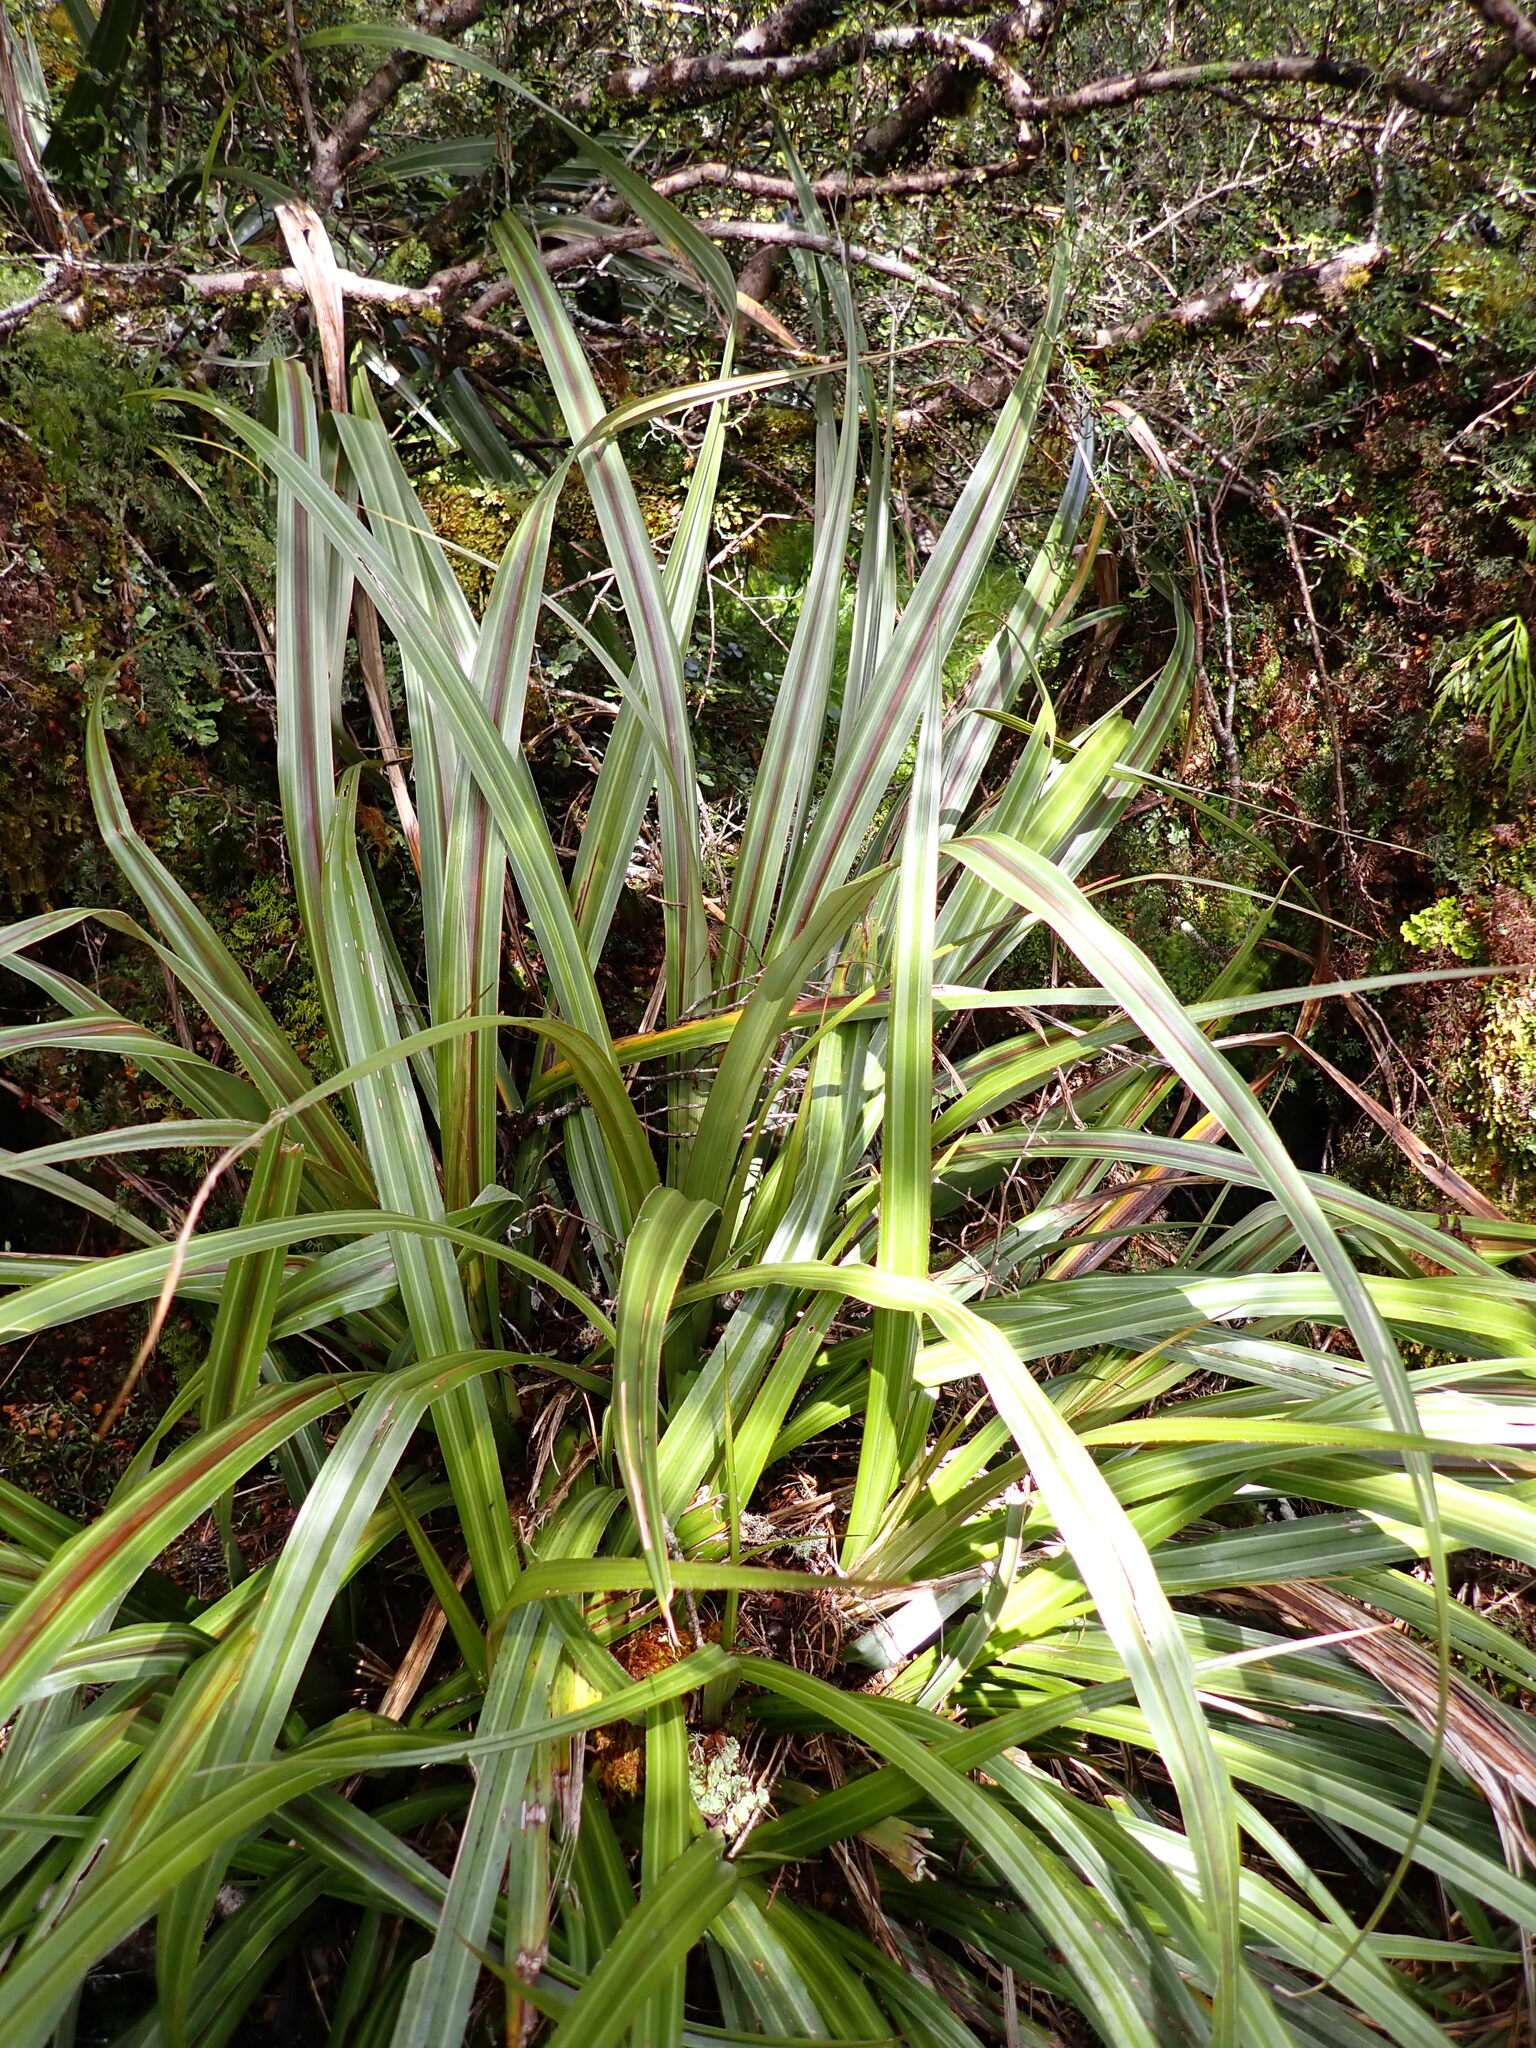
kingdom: Plantae
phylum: Tracheophyta
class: Liliopsida
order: Asparagales
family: Asteliaceae
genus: Astelia
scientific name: Astelia nervosa
